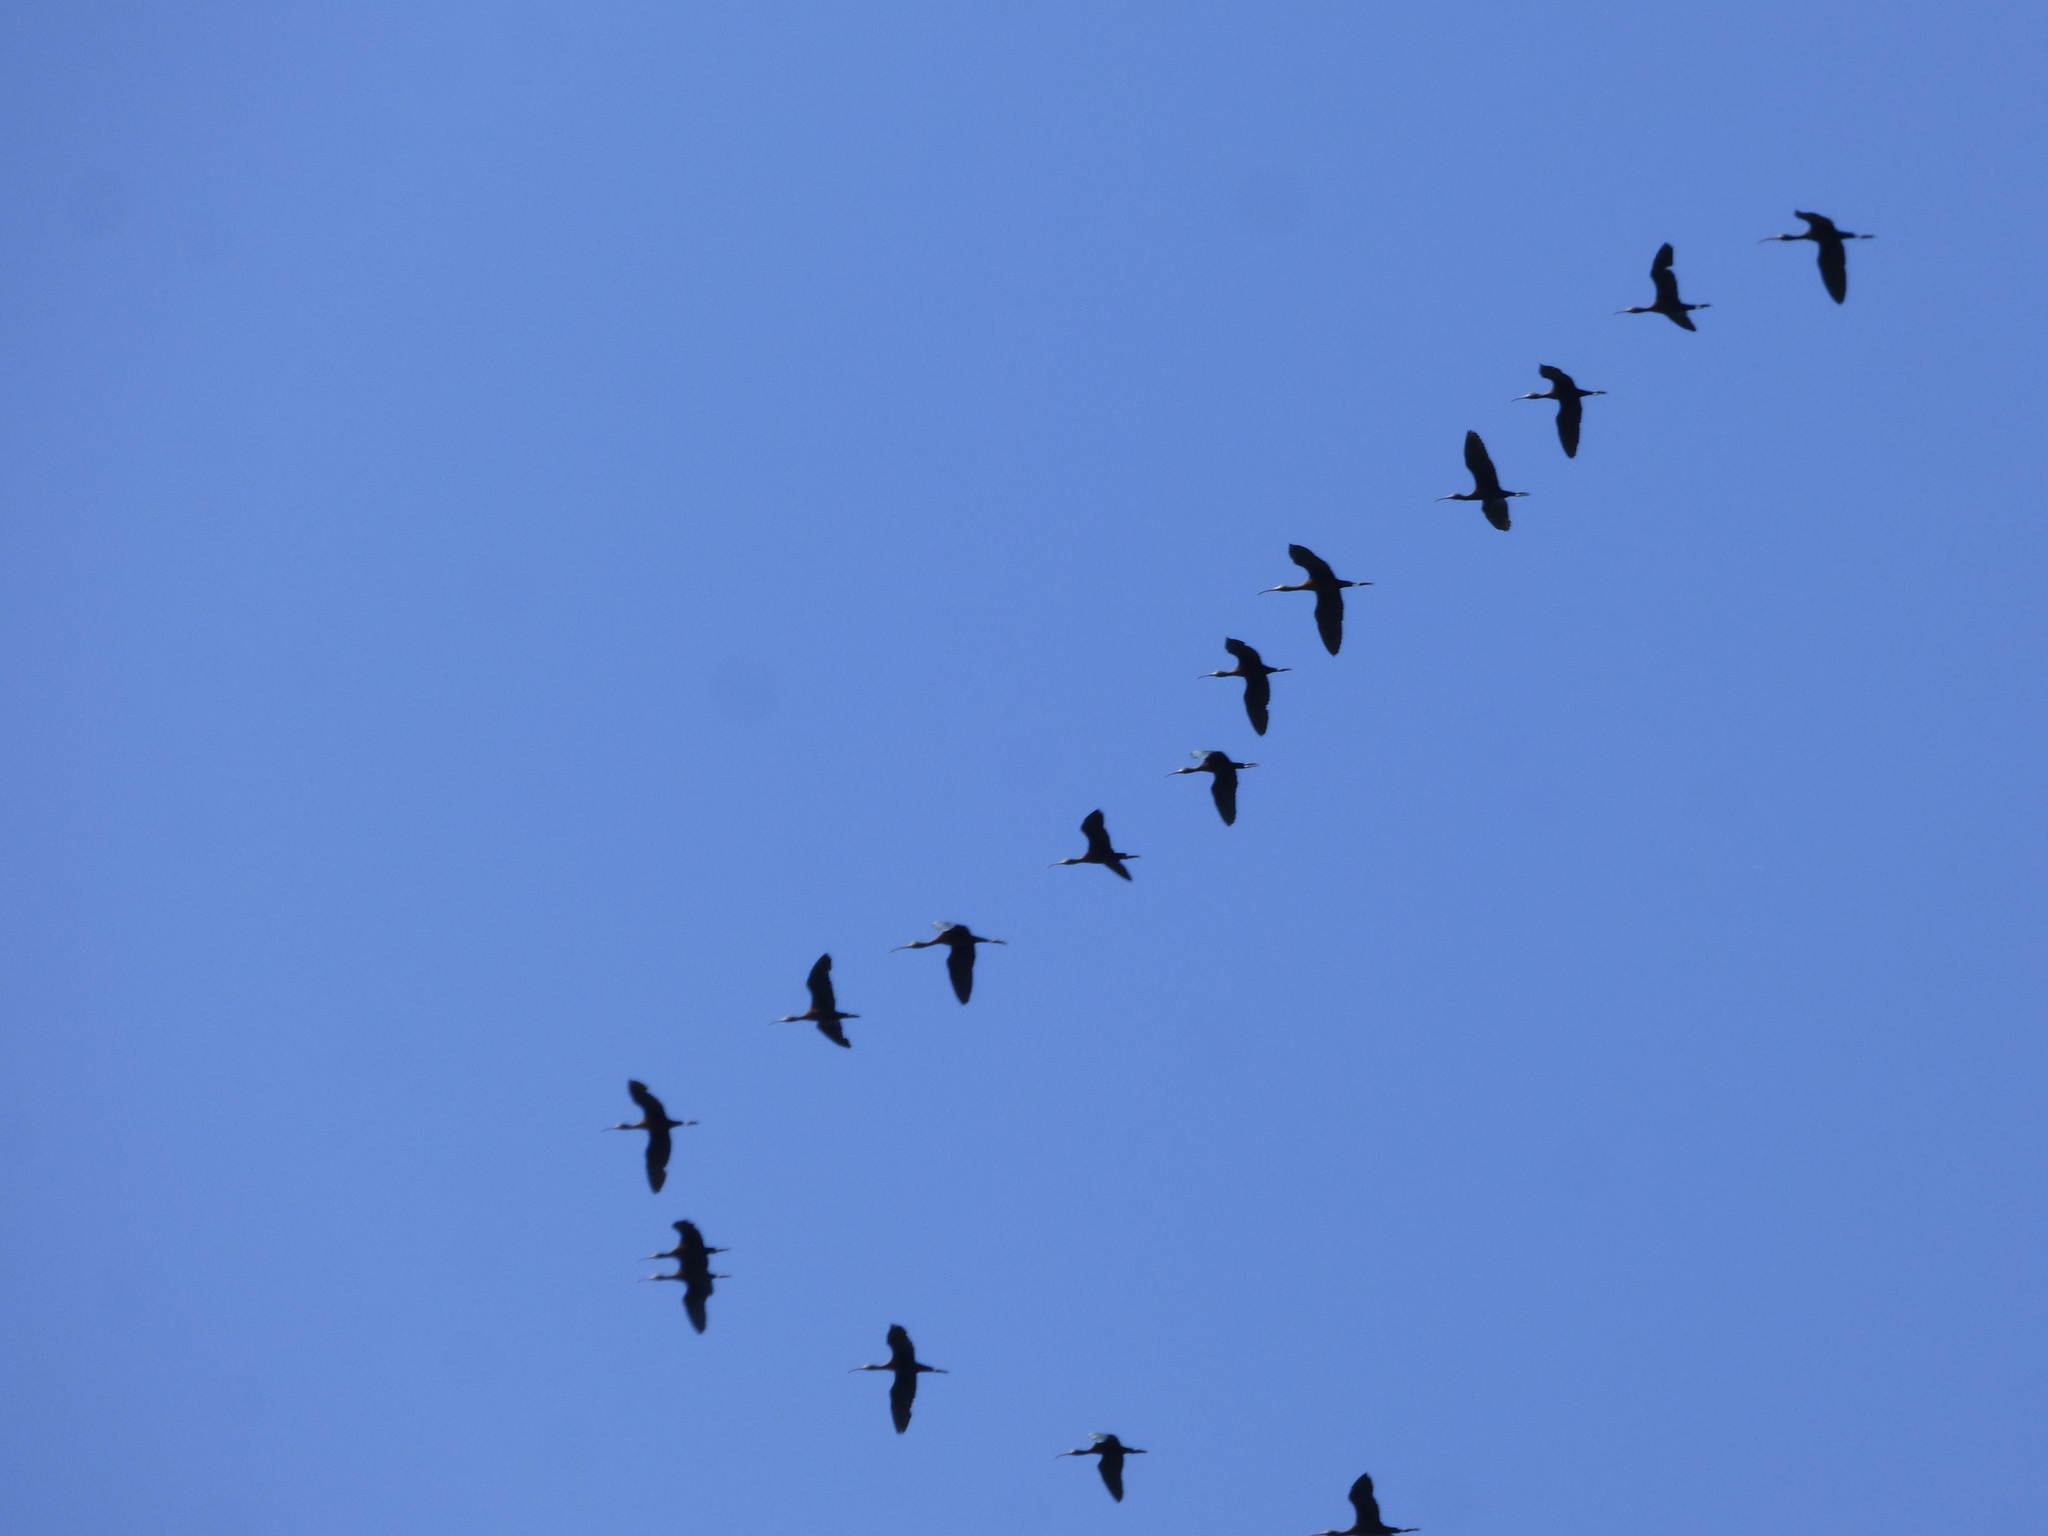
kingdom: Animalia
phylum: Chordata
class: Aves
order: Pelecaniformes
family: Threskiornithidae
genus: Plegadis
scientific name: Plegadis chihi
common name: White-faced ibis
